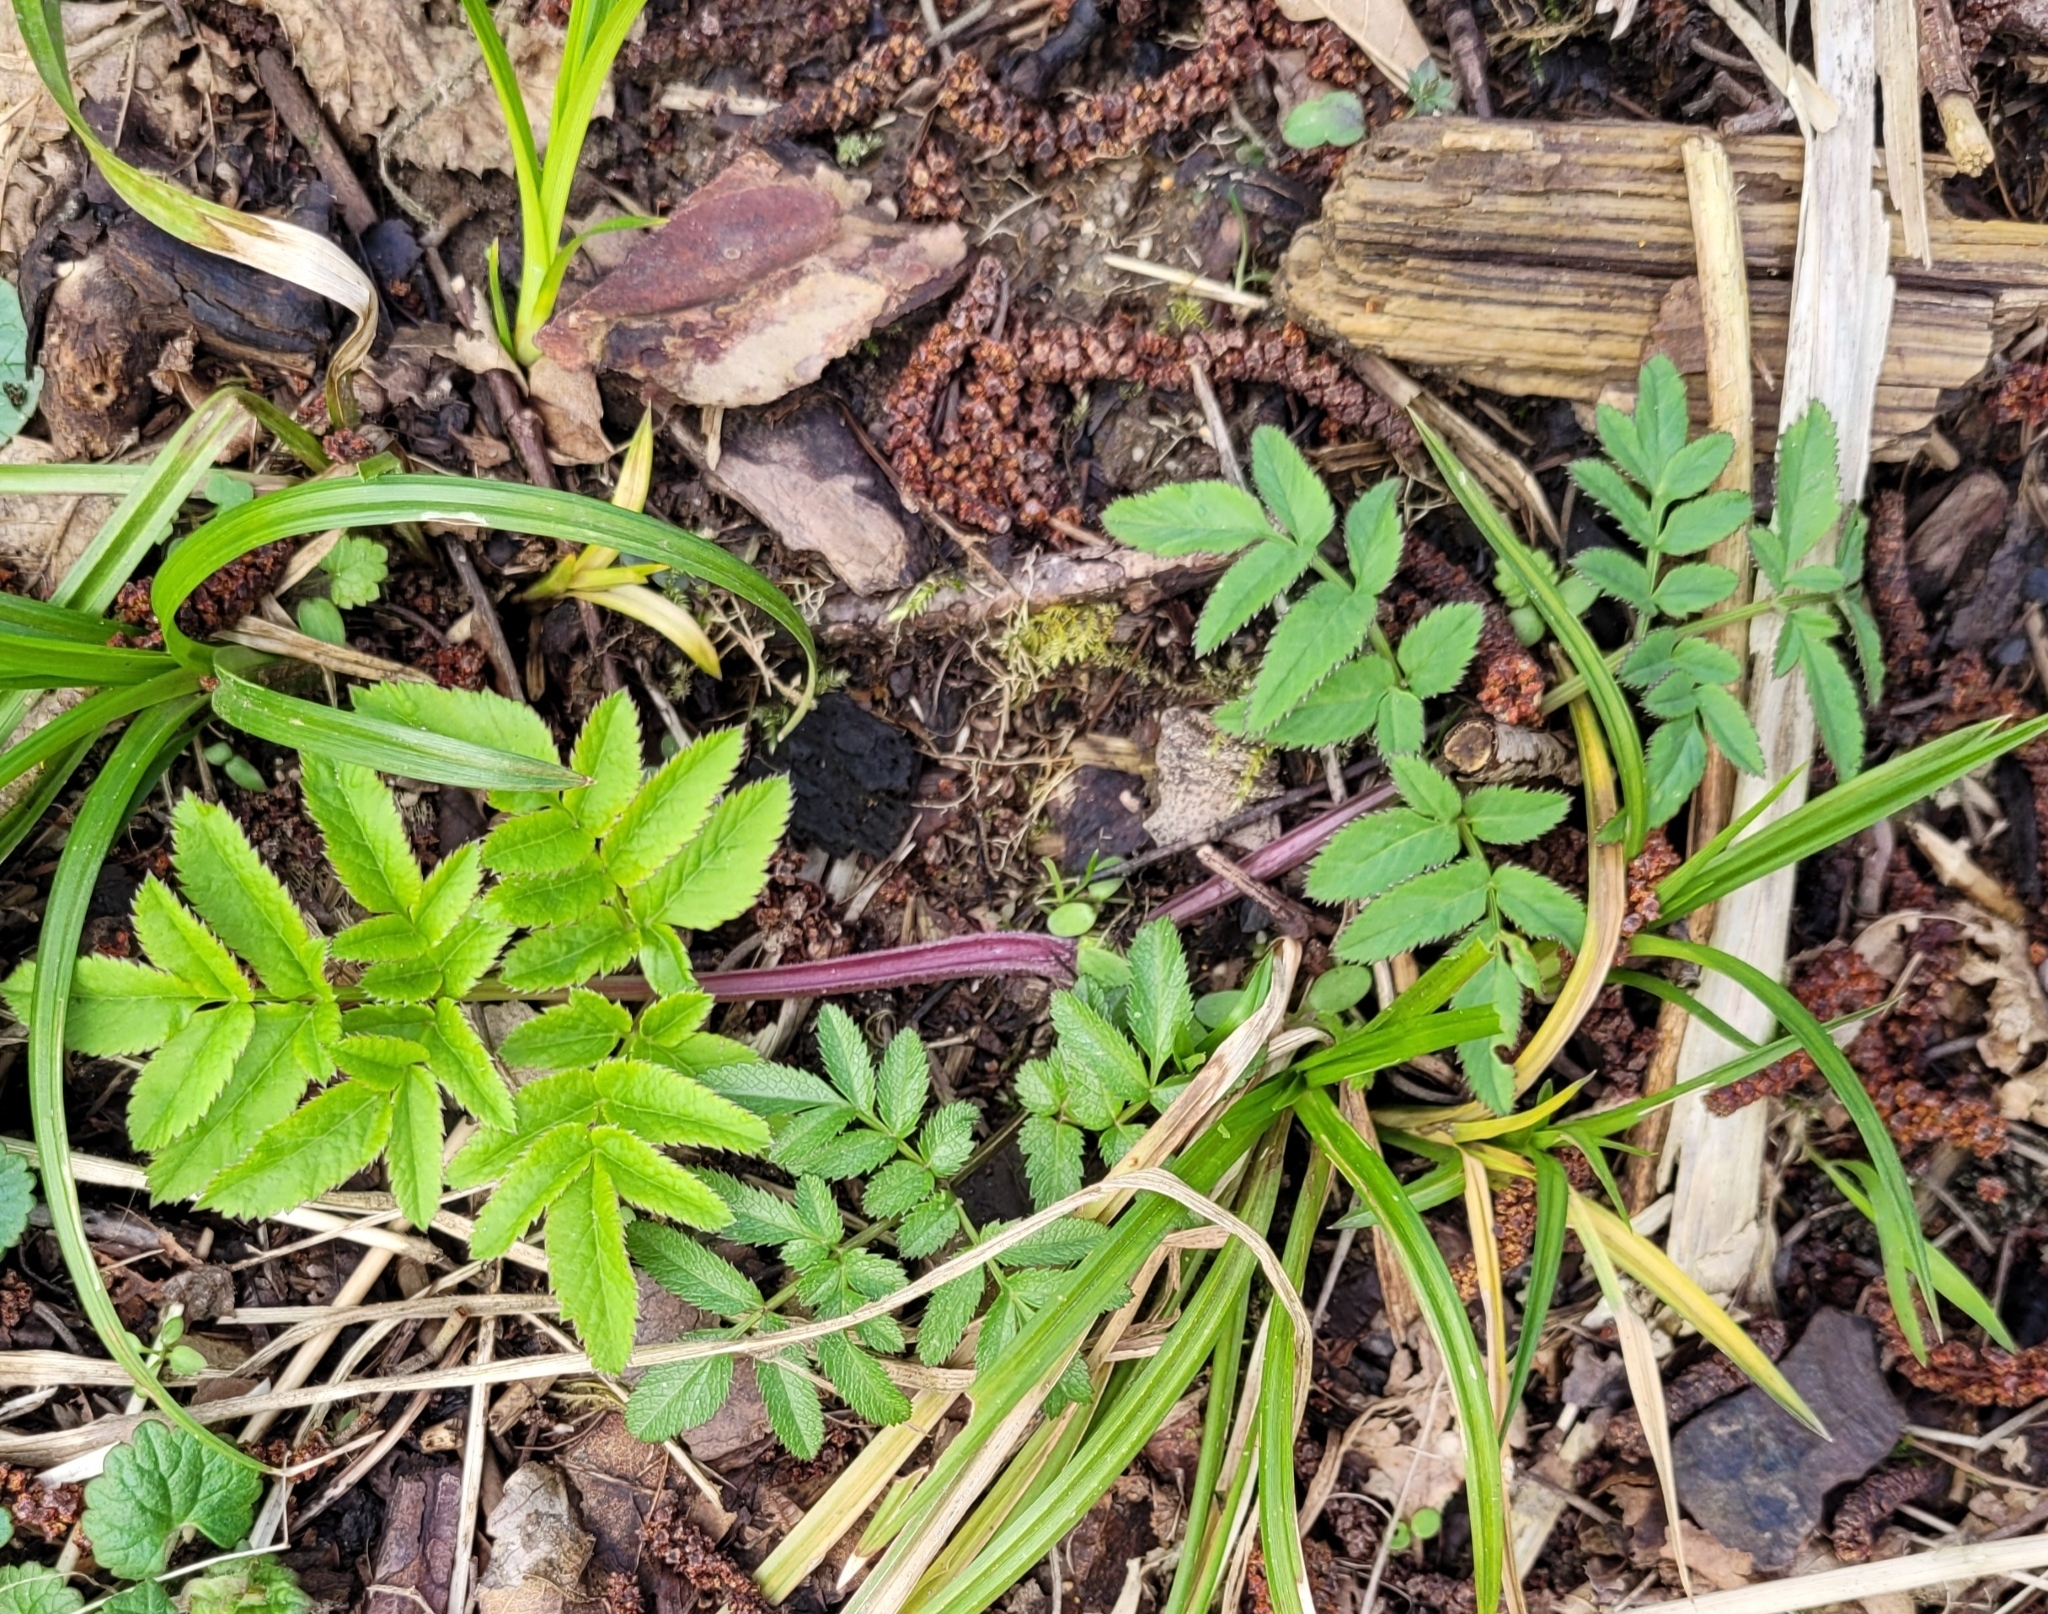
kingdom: Plantae
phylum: Tracheophyta
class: Magnoliopsida
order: Apiales
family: Apiaceae
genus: Angelica
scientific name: Angelica sylvestris
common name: Wild angelica
